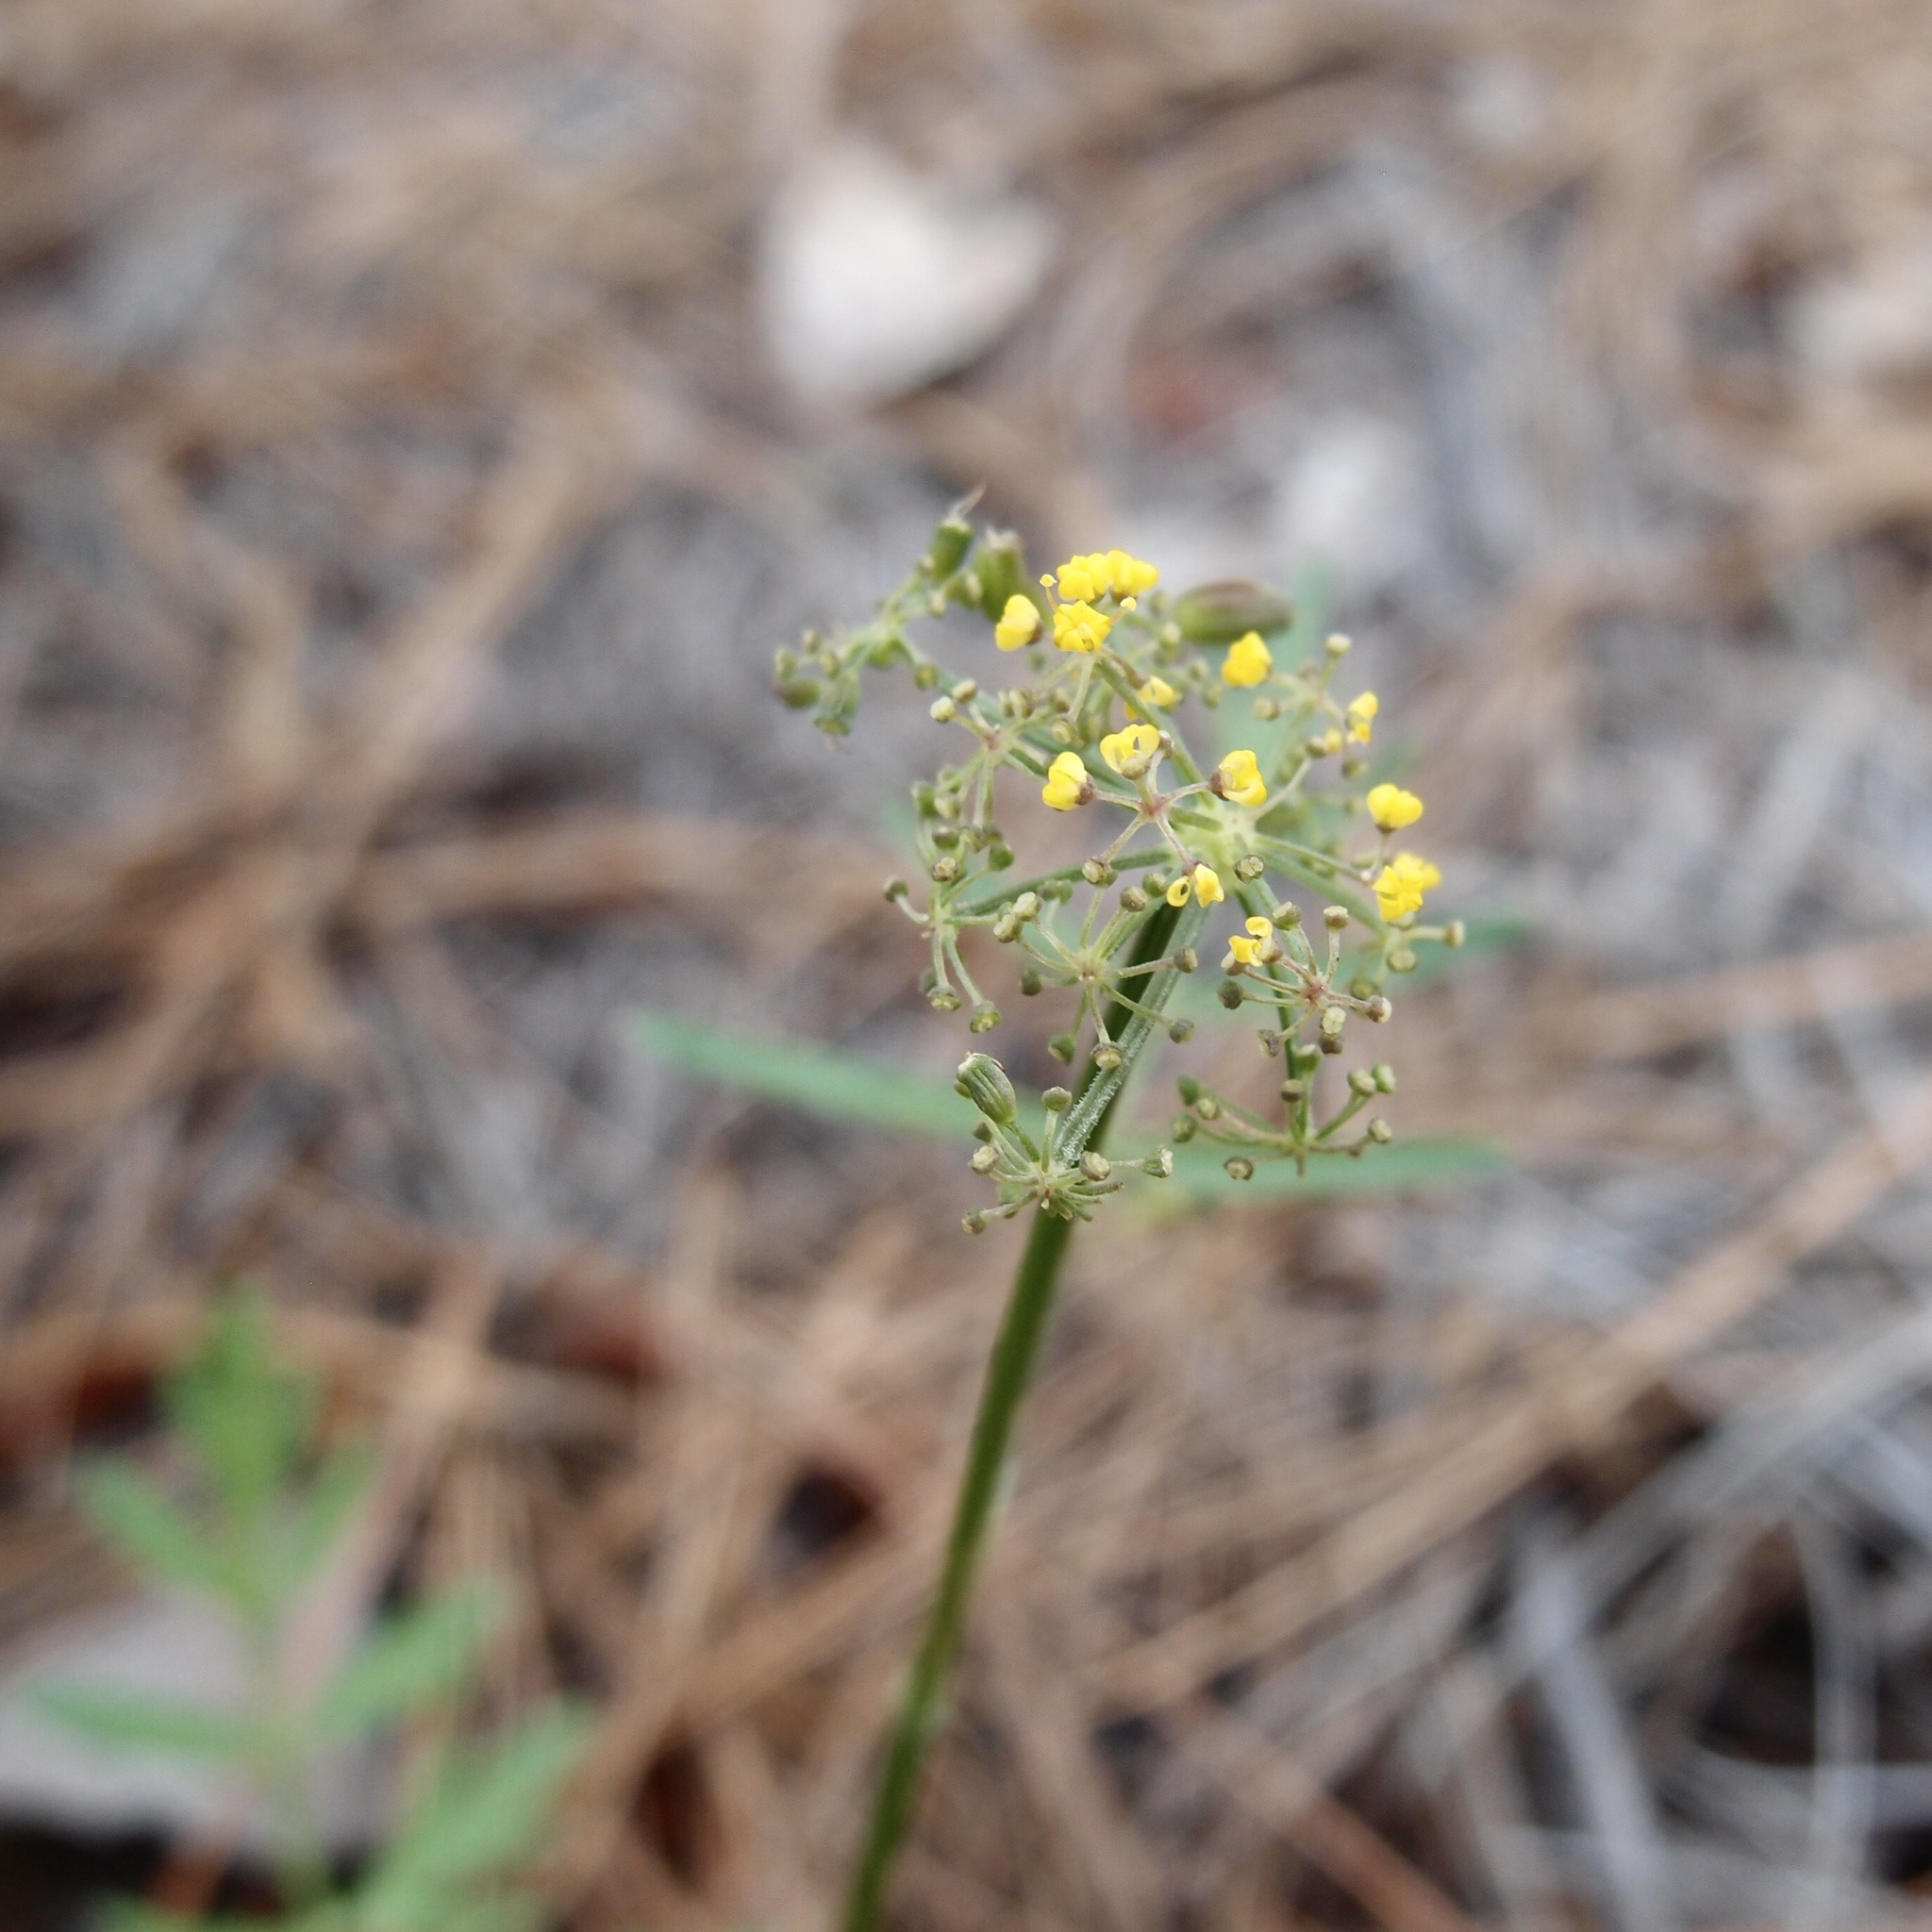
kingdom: Plantae
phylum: Tracheophyta
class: Magnoliopsida
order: Apiales
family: Apiaceae
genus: Cymopterus
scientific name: Cymopterus lemmonii
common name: Lemmon's spring-parsley
